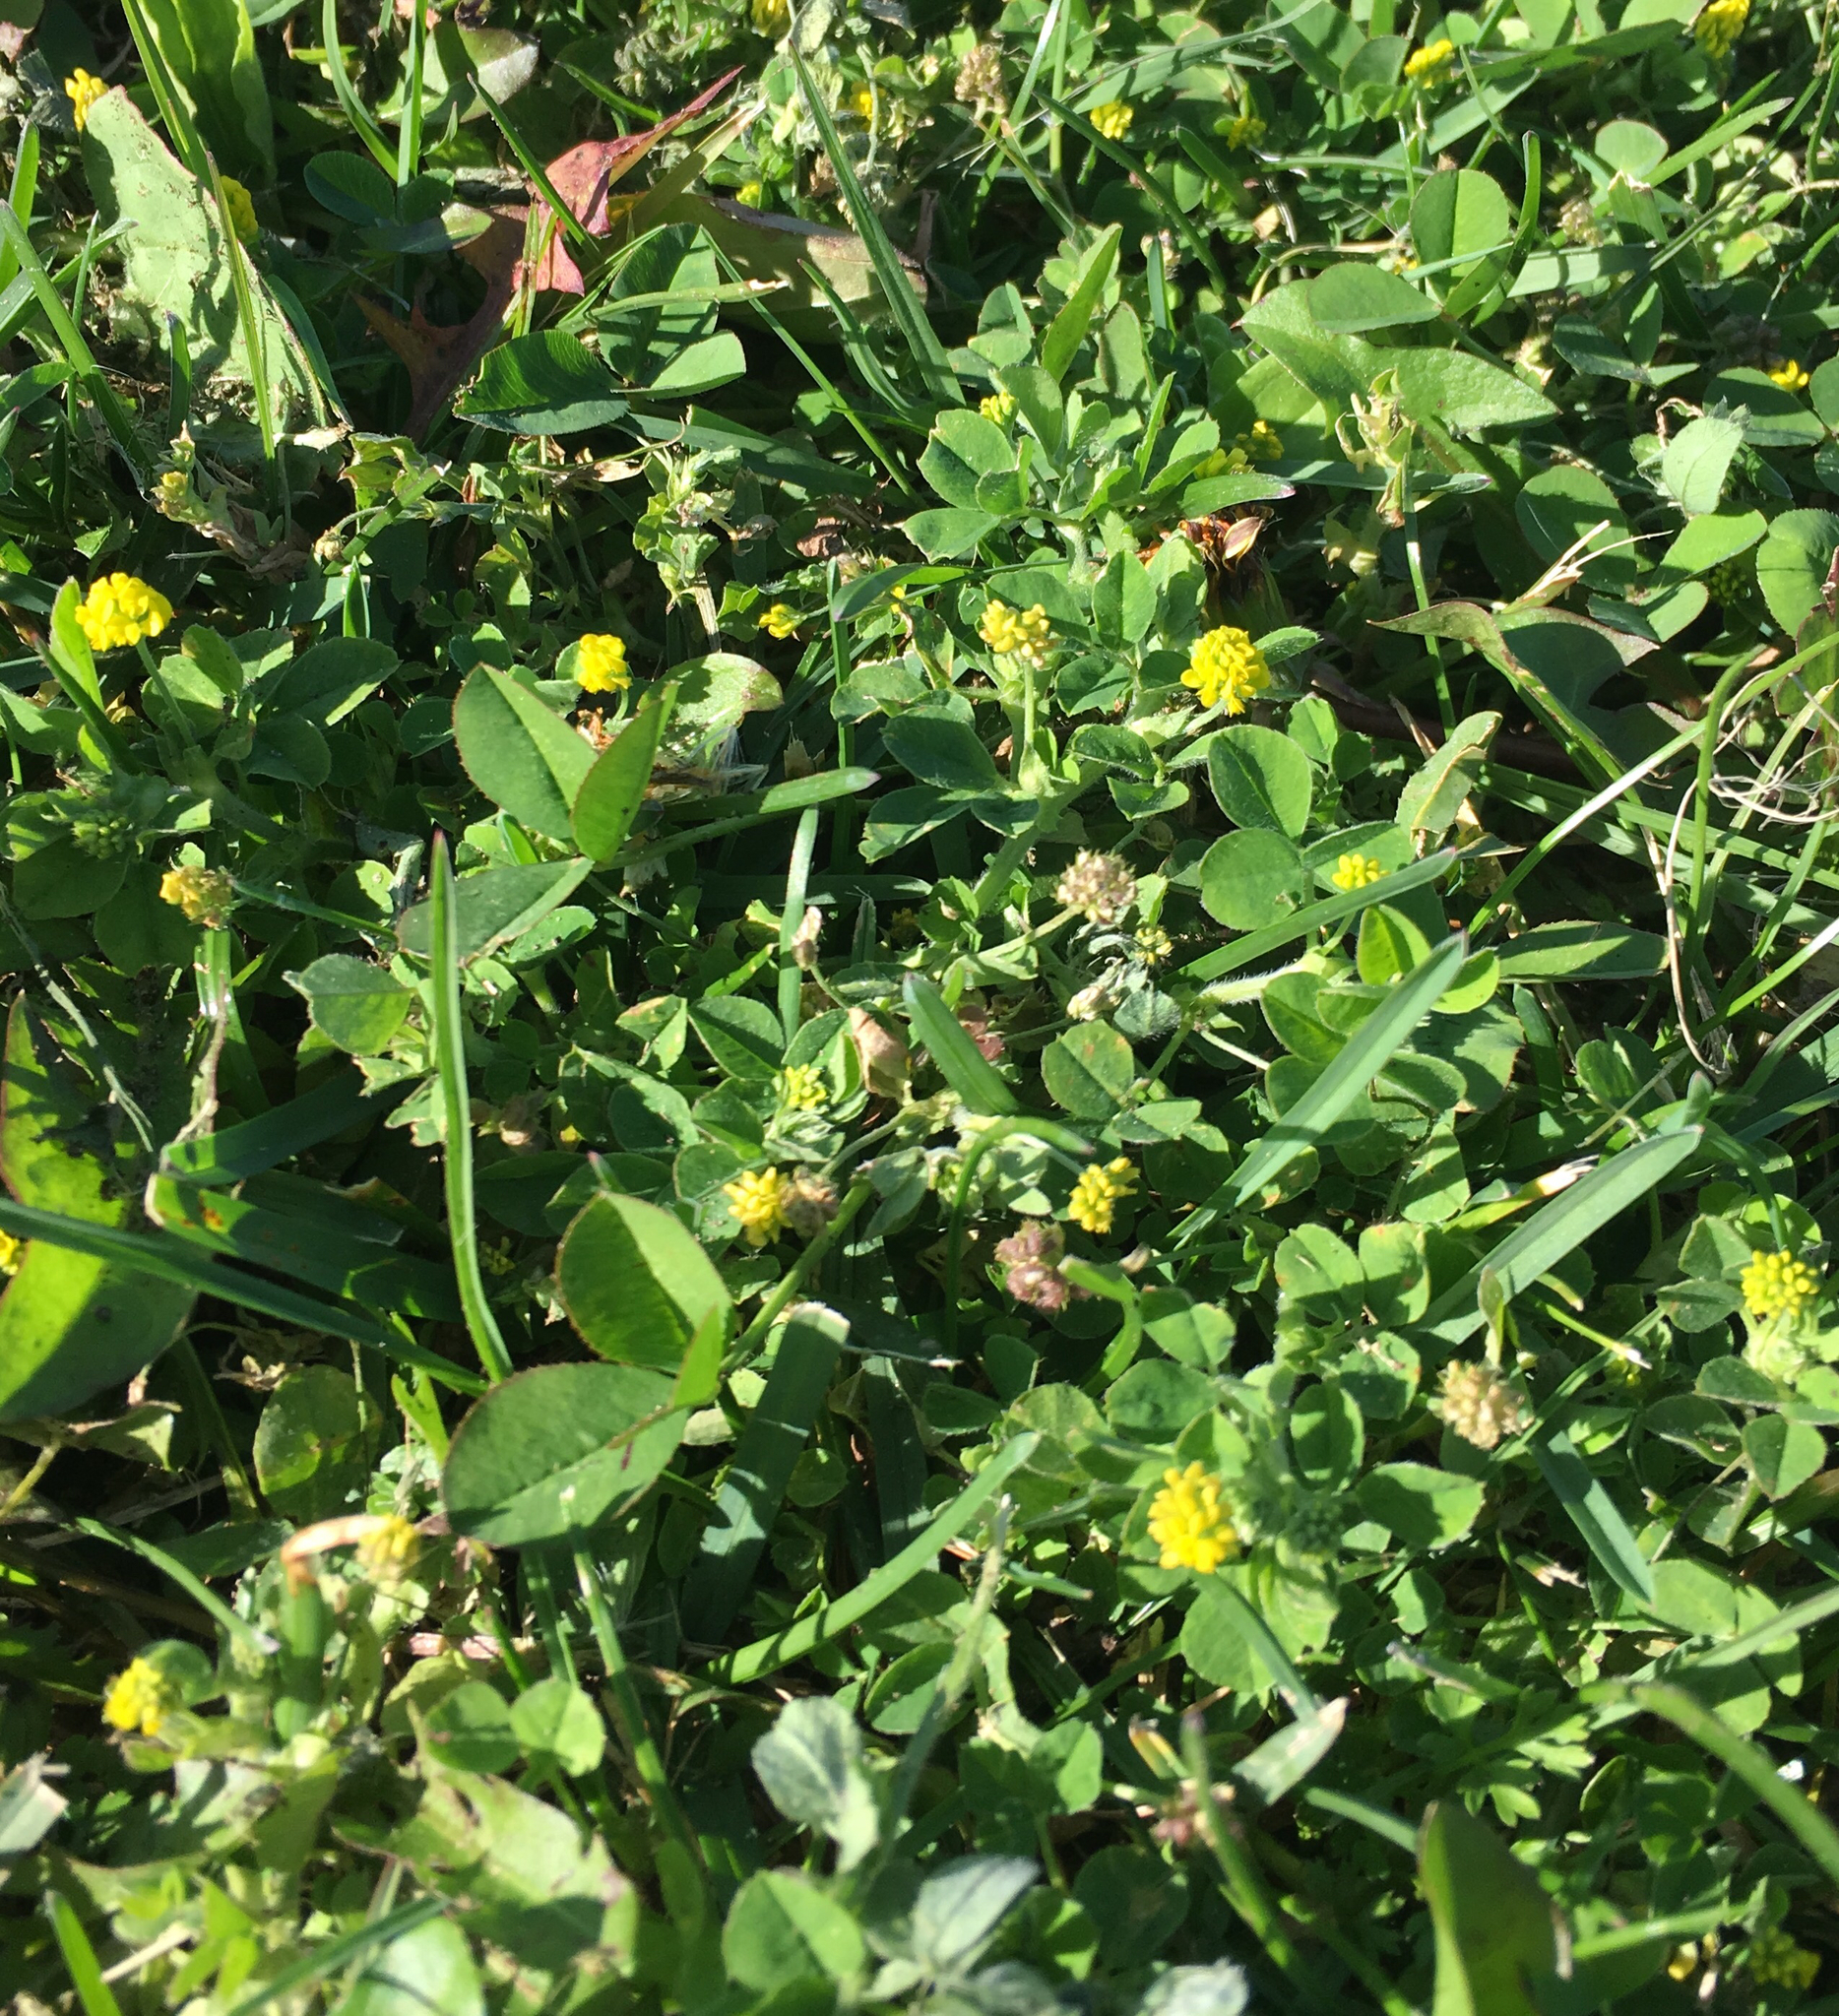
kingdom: Plantae
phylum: Tracheophyta
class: Magnoliopsida
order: Fabales
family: Fabaceae
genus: Medicago
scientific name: Medicago lupulina
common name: Black medick
